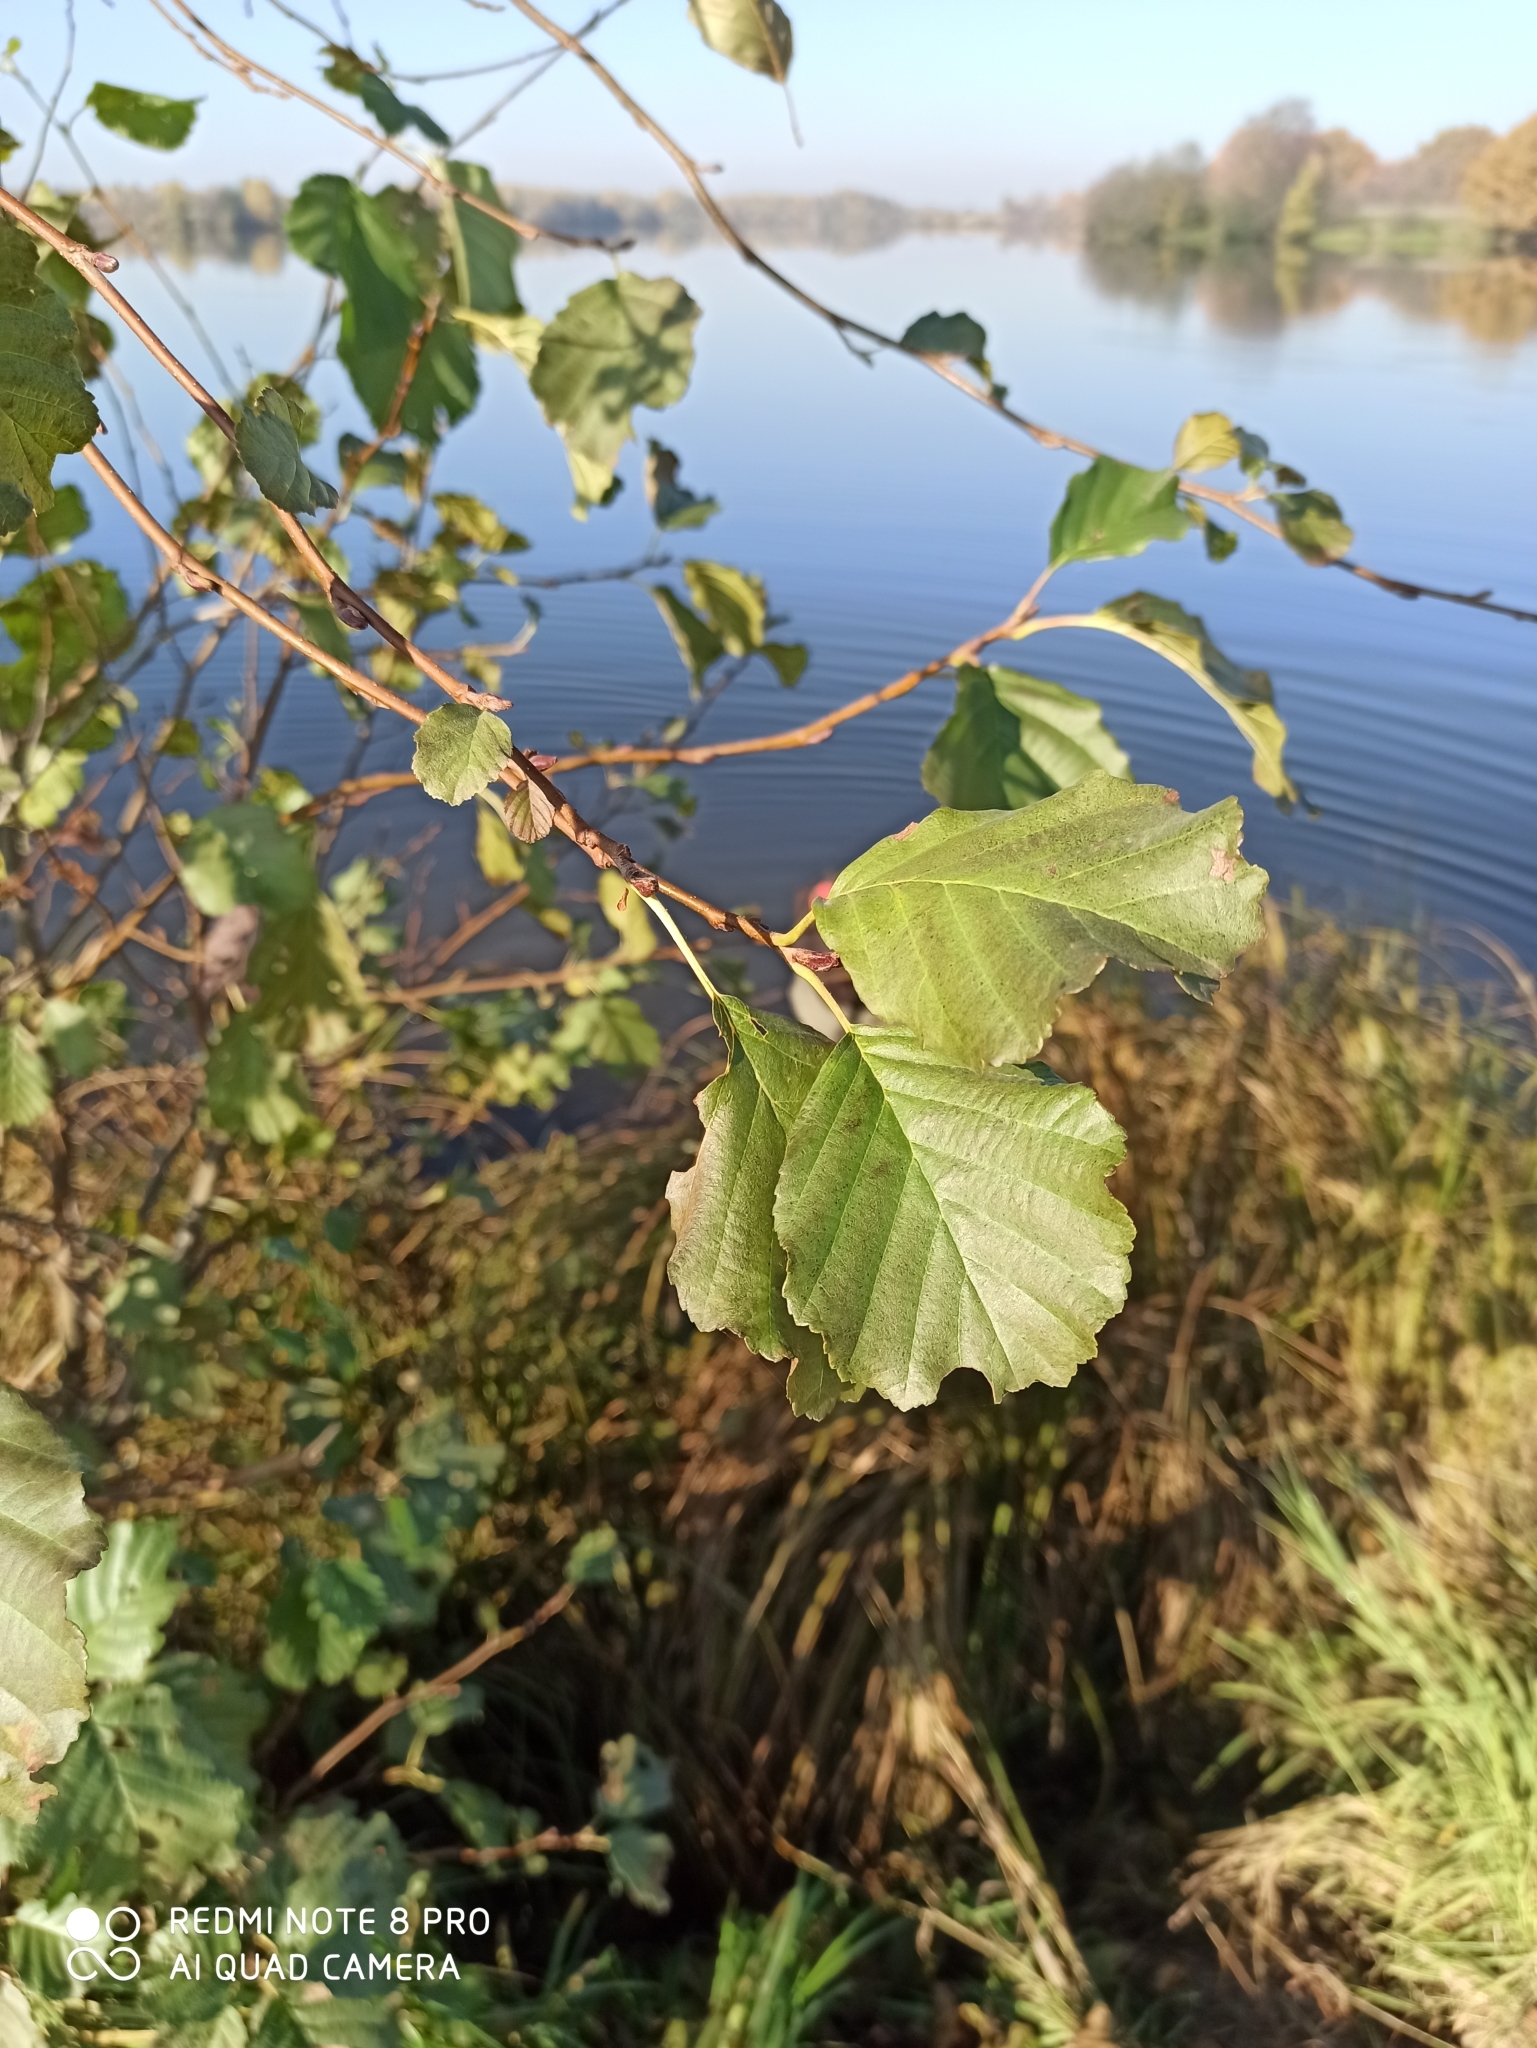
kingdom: Plantae
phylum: Tracheophyta
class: Magnoliopsida
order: Fagales
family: Betulaceae
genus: Alnus
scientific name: Alnus glutinosa
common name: Black alder
